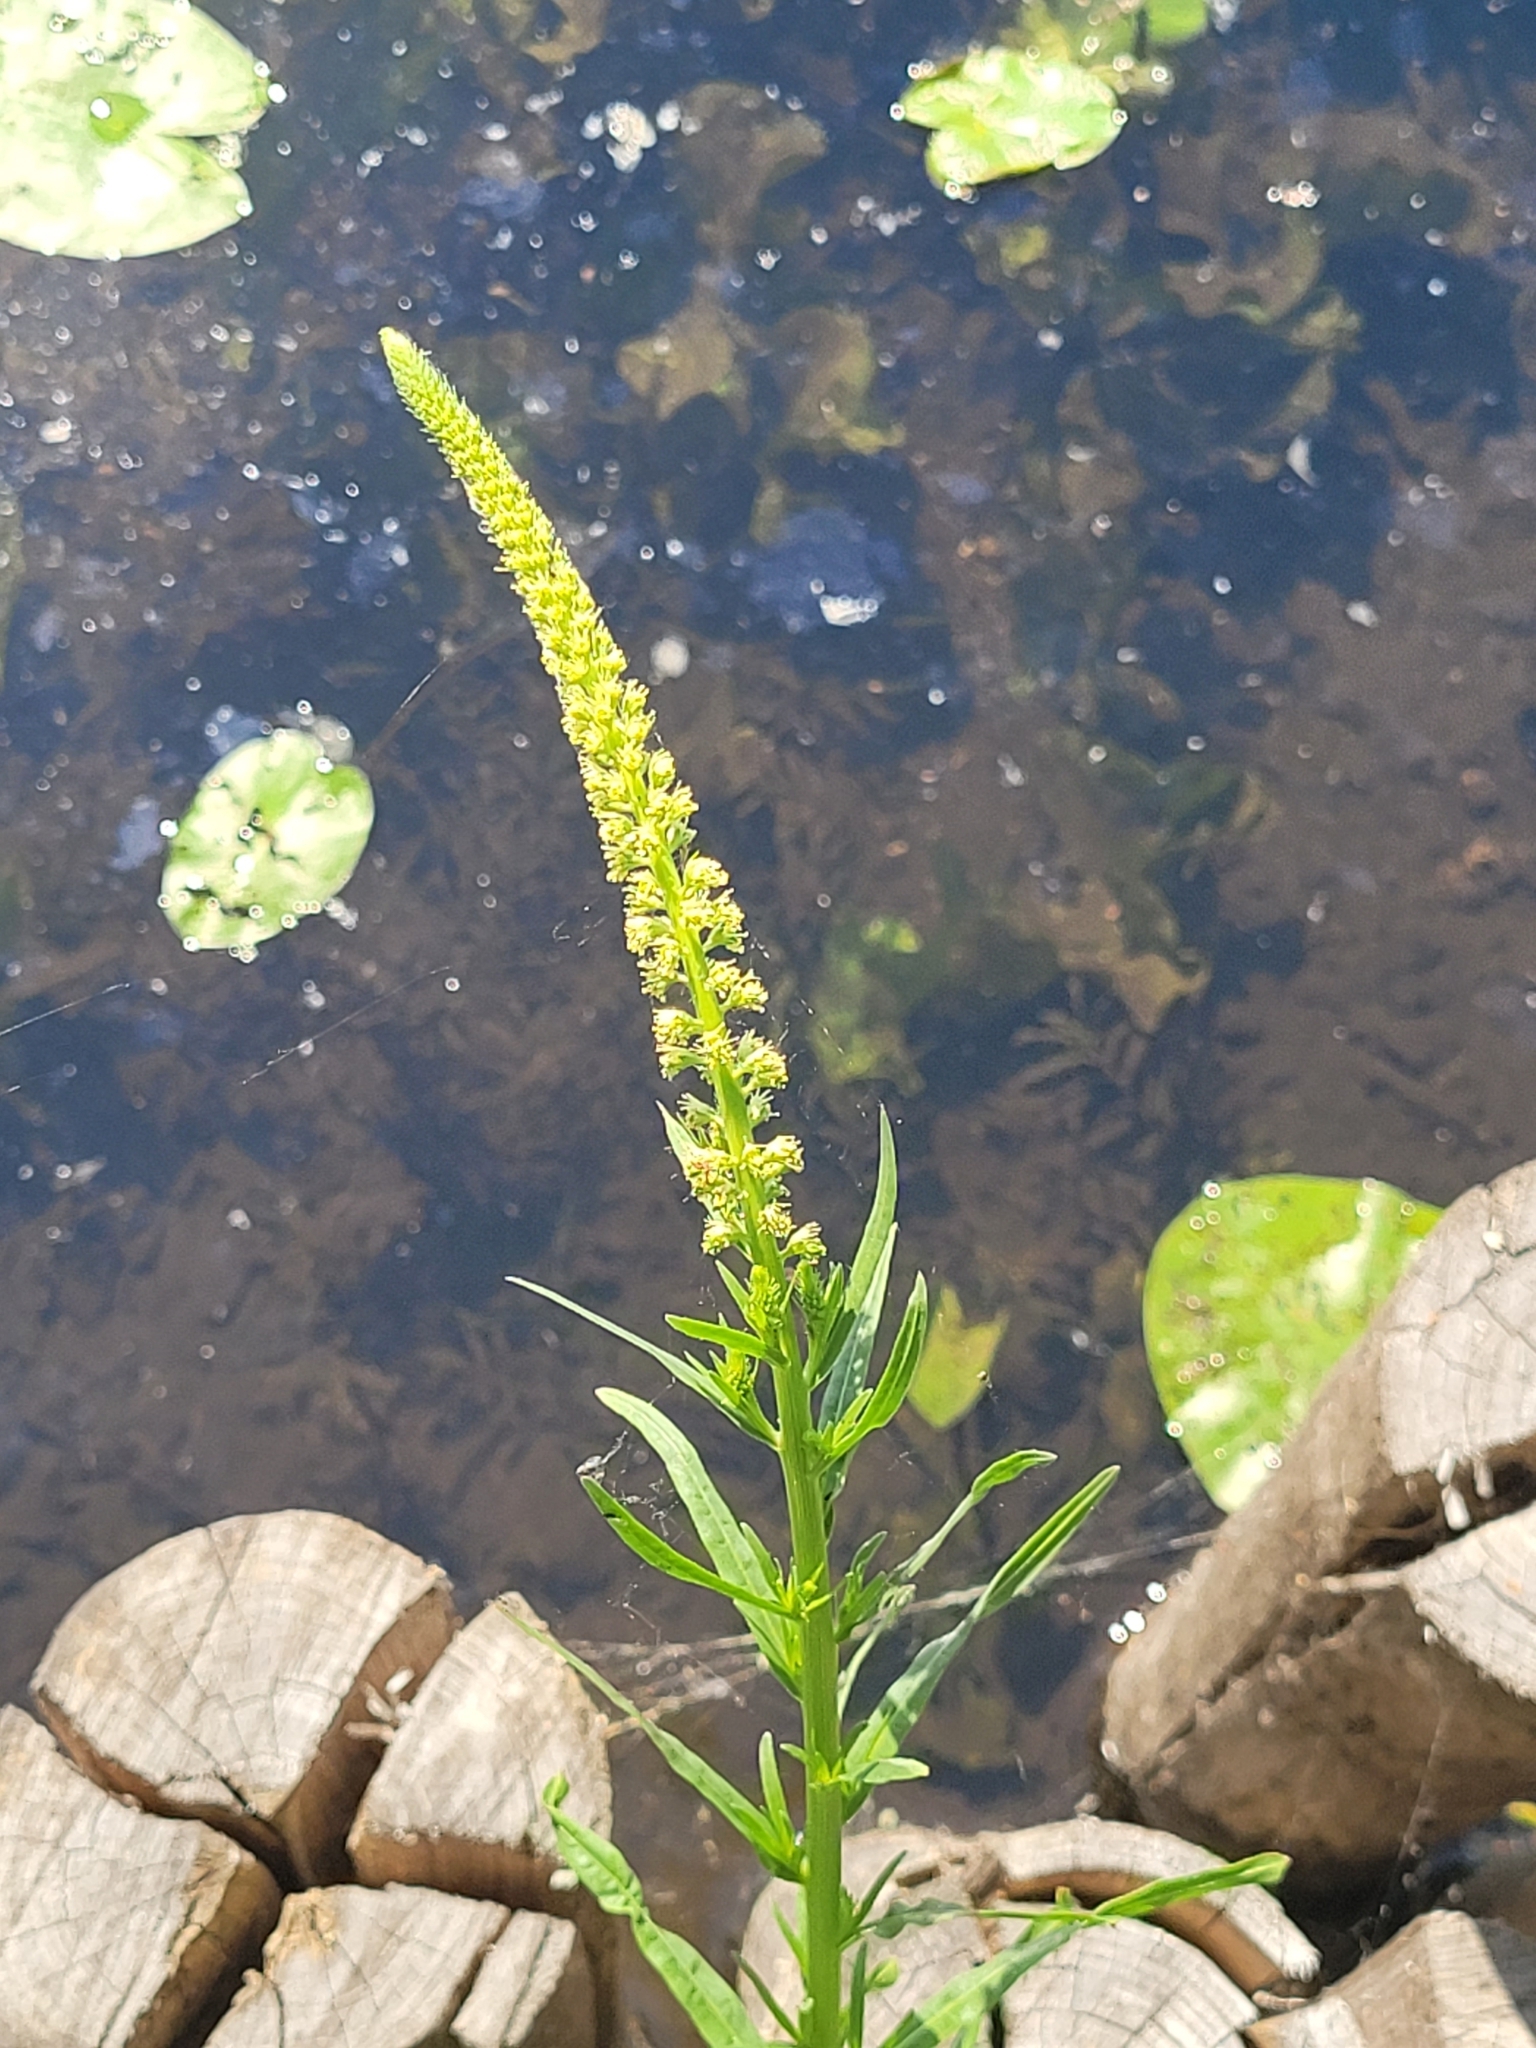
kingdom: Plantae
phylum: Tracheophyta
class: Magnoliopsida
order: Brassicales
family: Resedaceae
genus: Reseda
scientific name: Reseda luteola
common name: Weld
